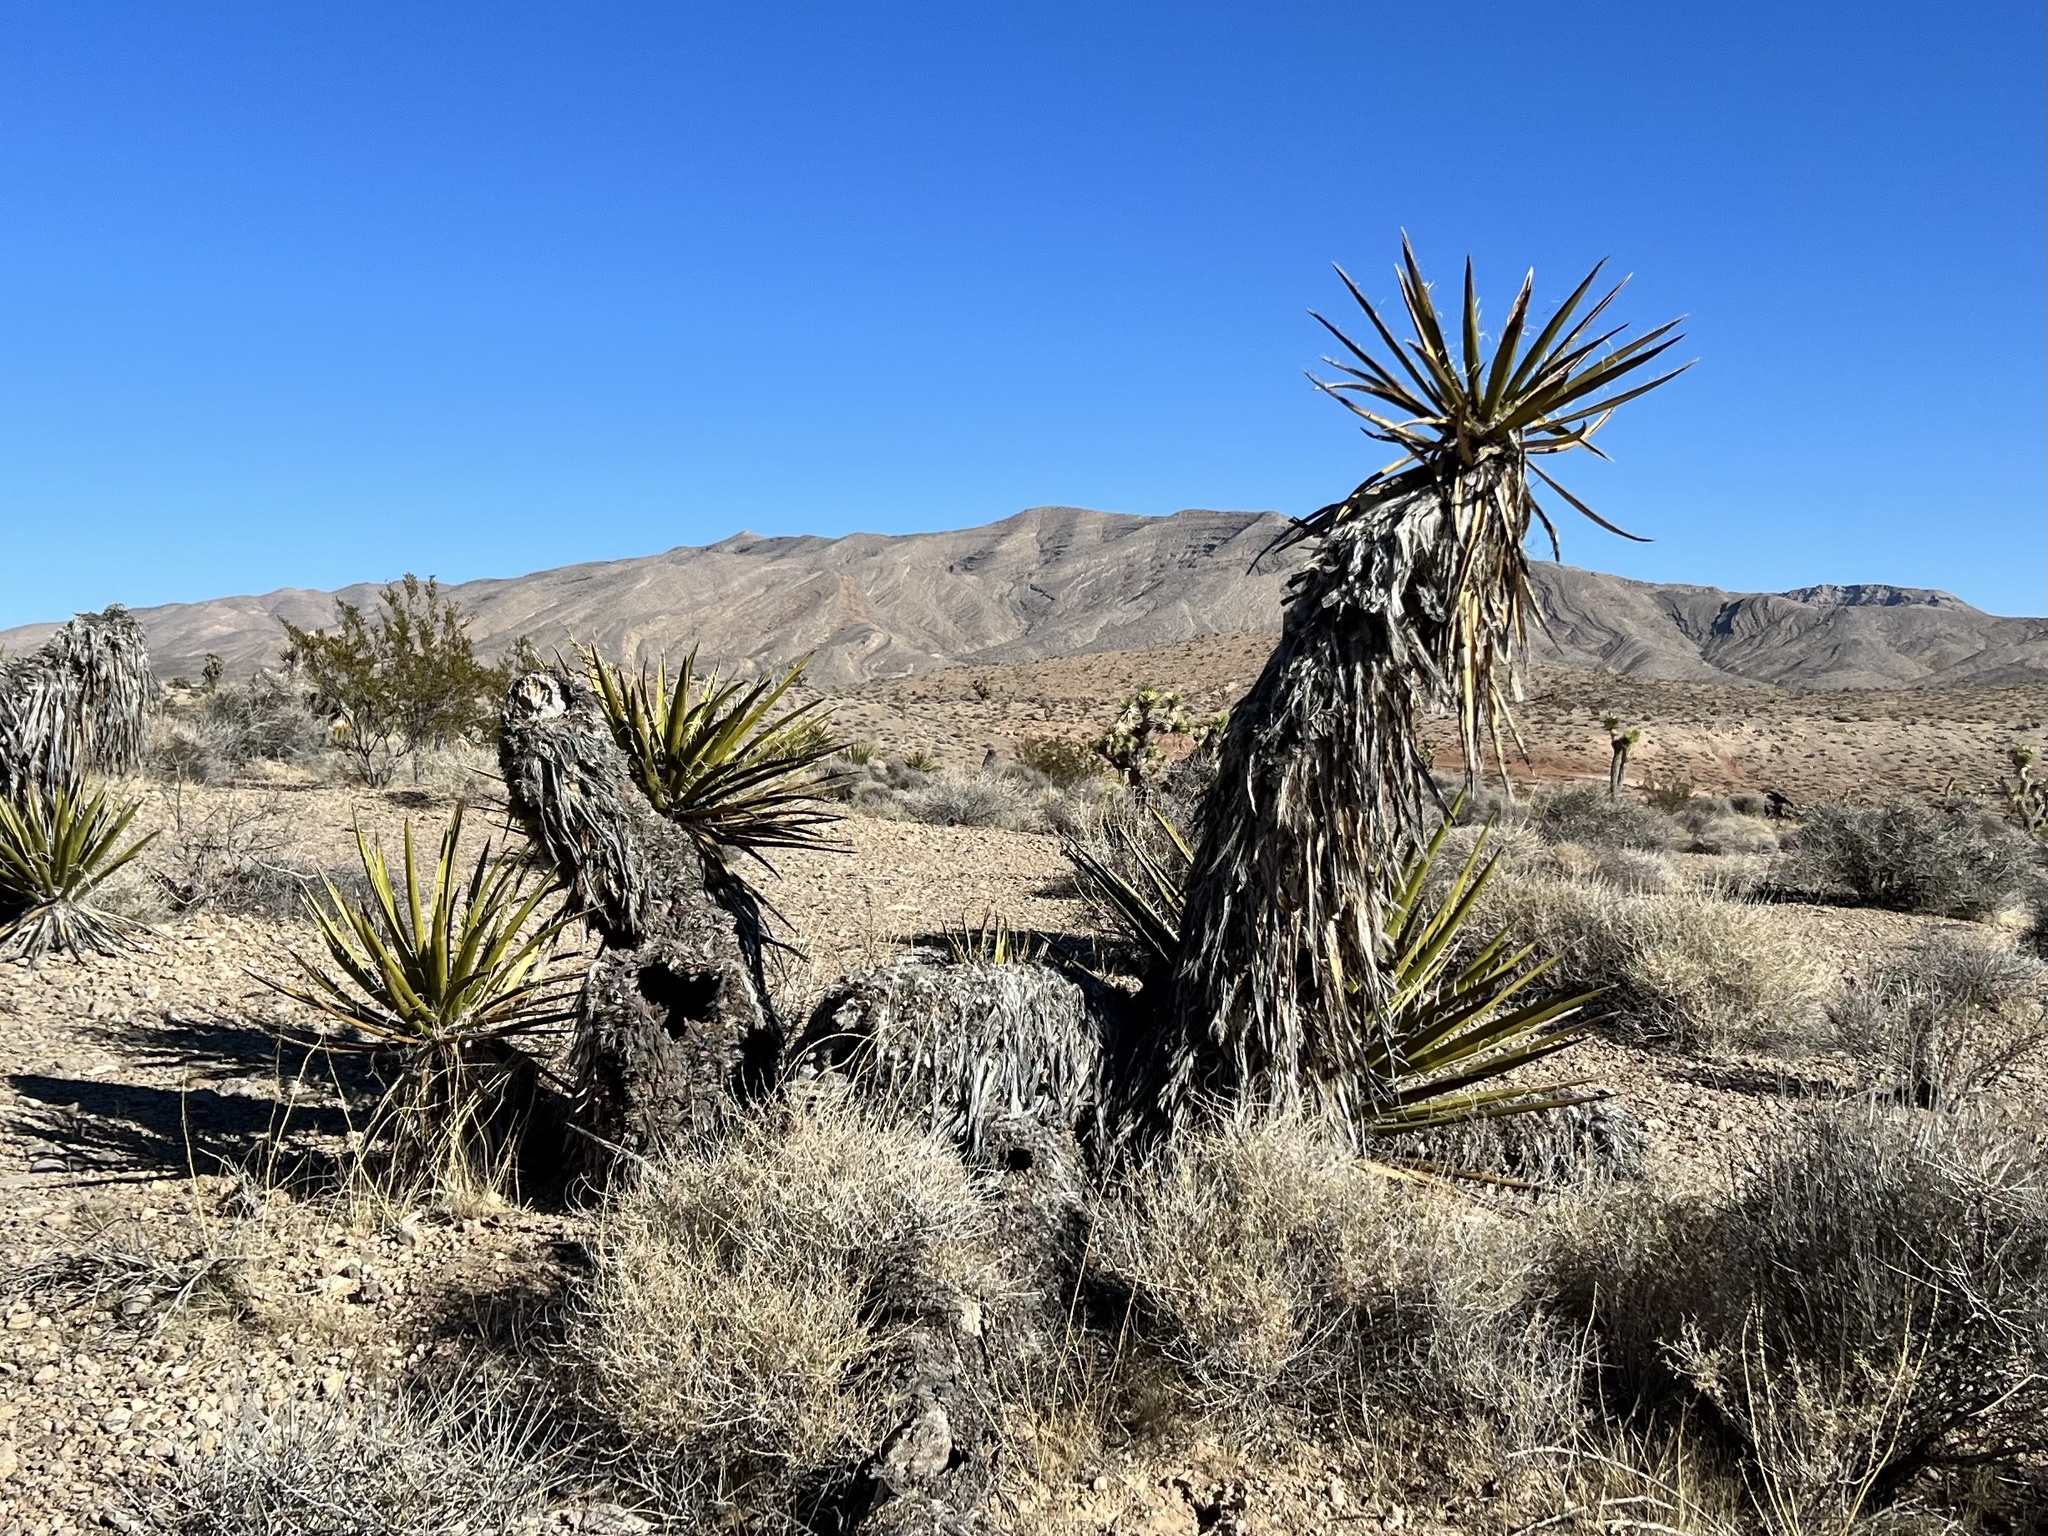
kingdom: Plantae
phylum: Tracheophyta
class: Liliopsida
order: Asparagales
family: Asparagaceae
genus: Yucca
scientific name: Yucca schidigera
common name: Mojave yucca
